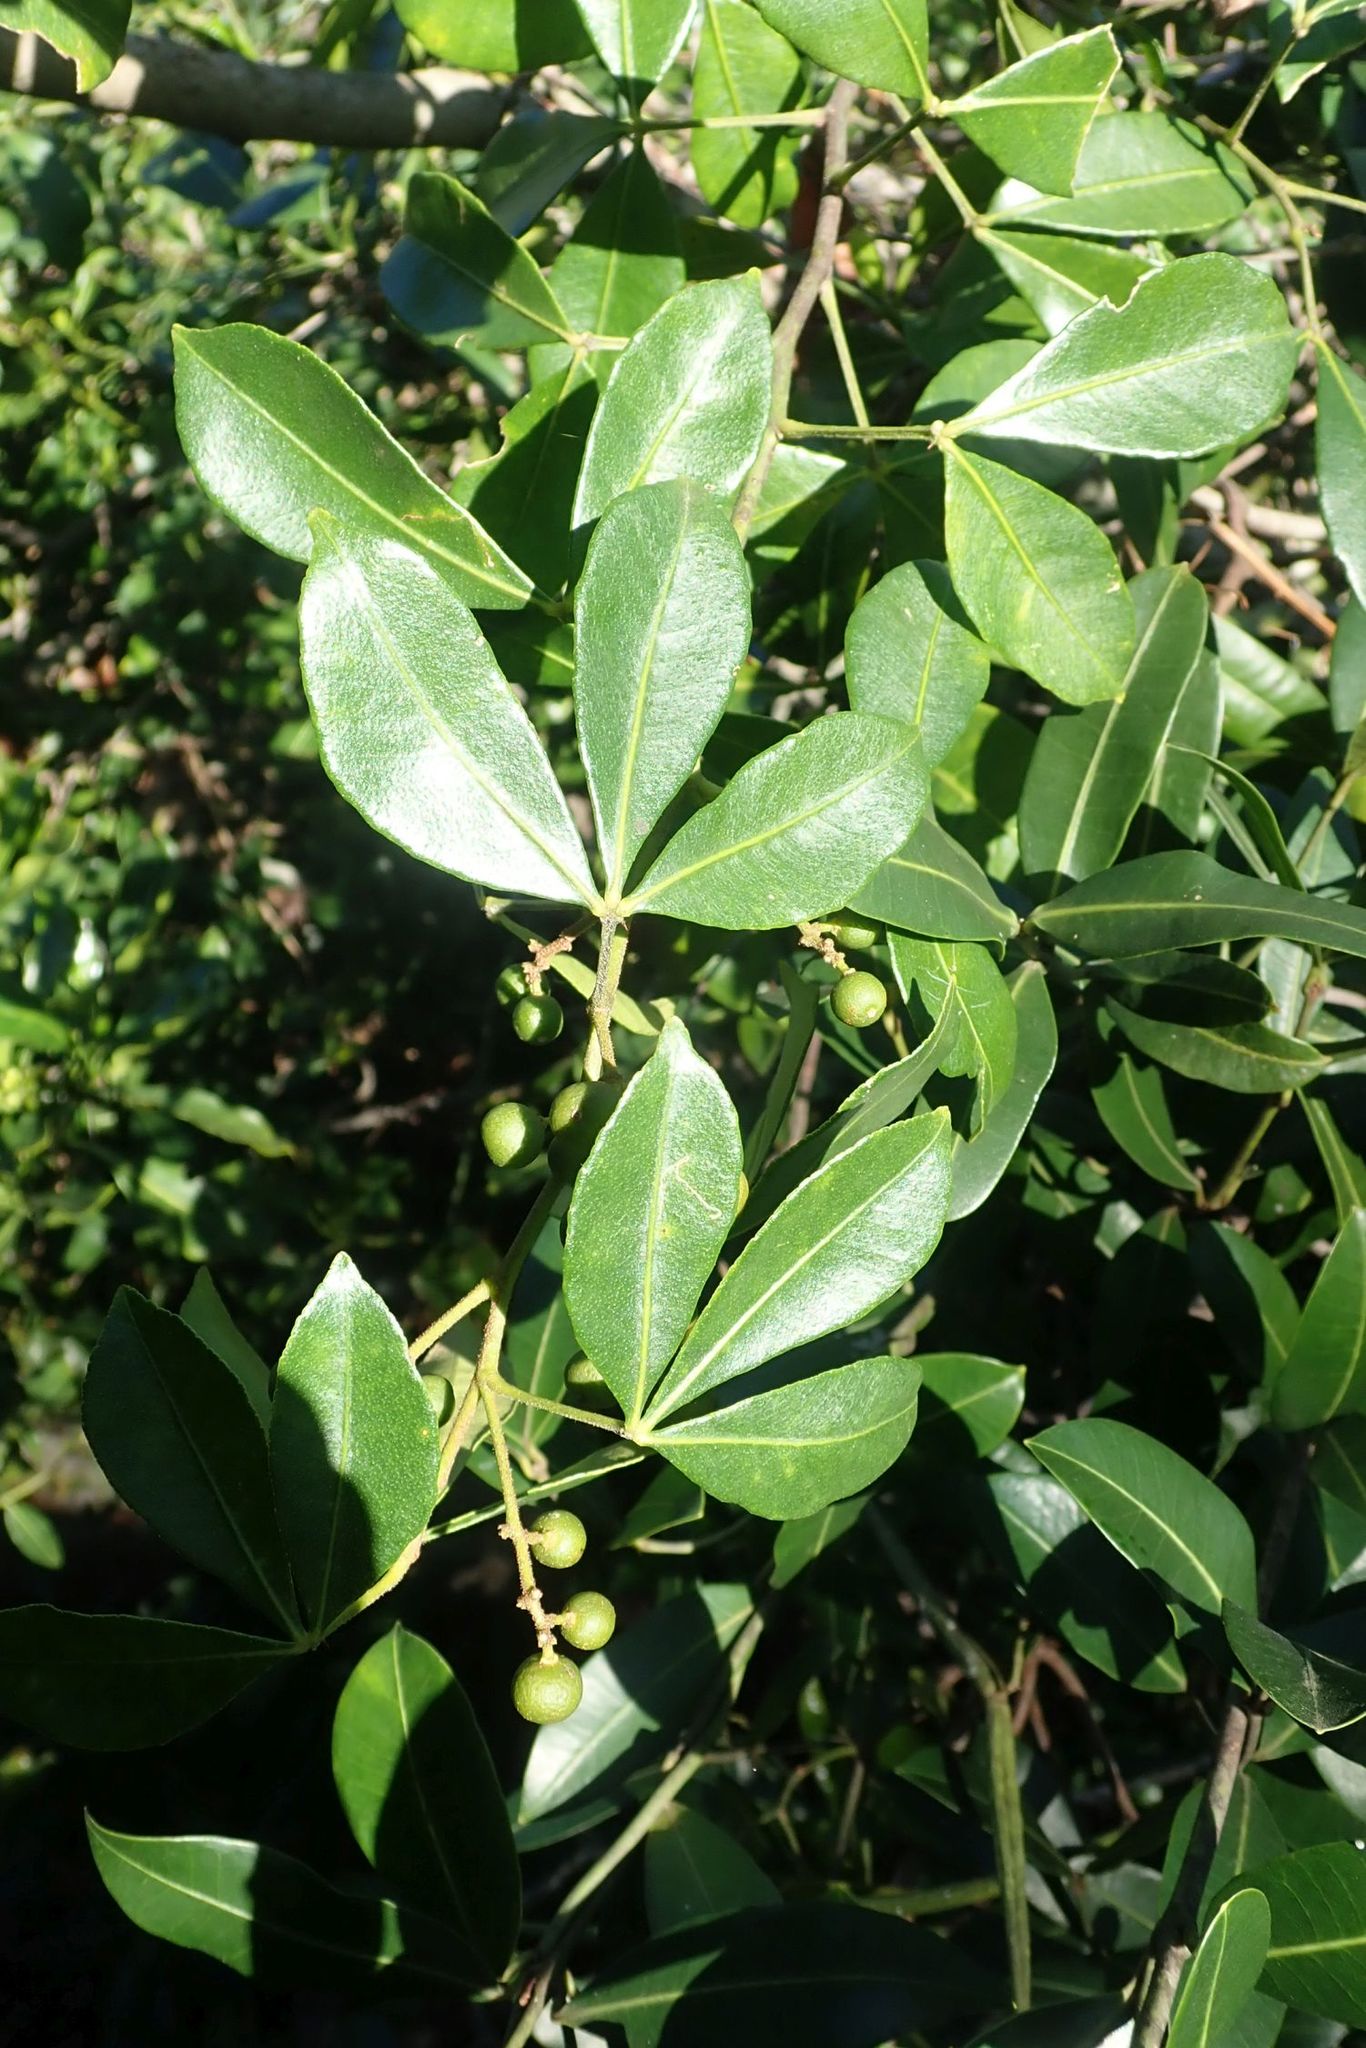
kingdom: Plantae
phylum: Tracheophyta
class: Magnoliopsida
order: Sapindales
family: Rutaceae
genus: Zanthoxylum
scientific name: Zanthoxylum asiaticum
